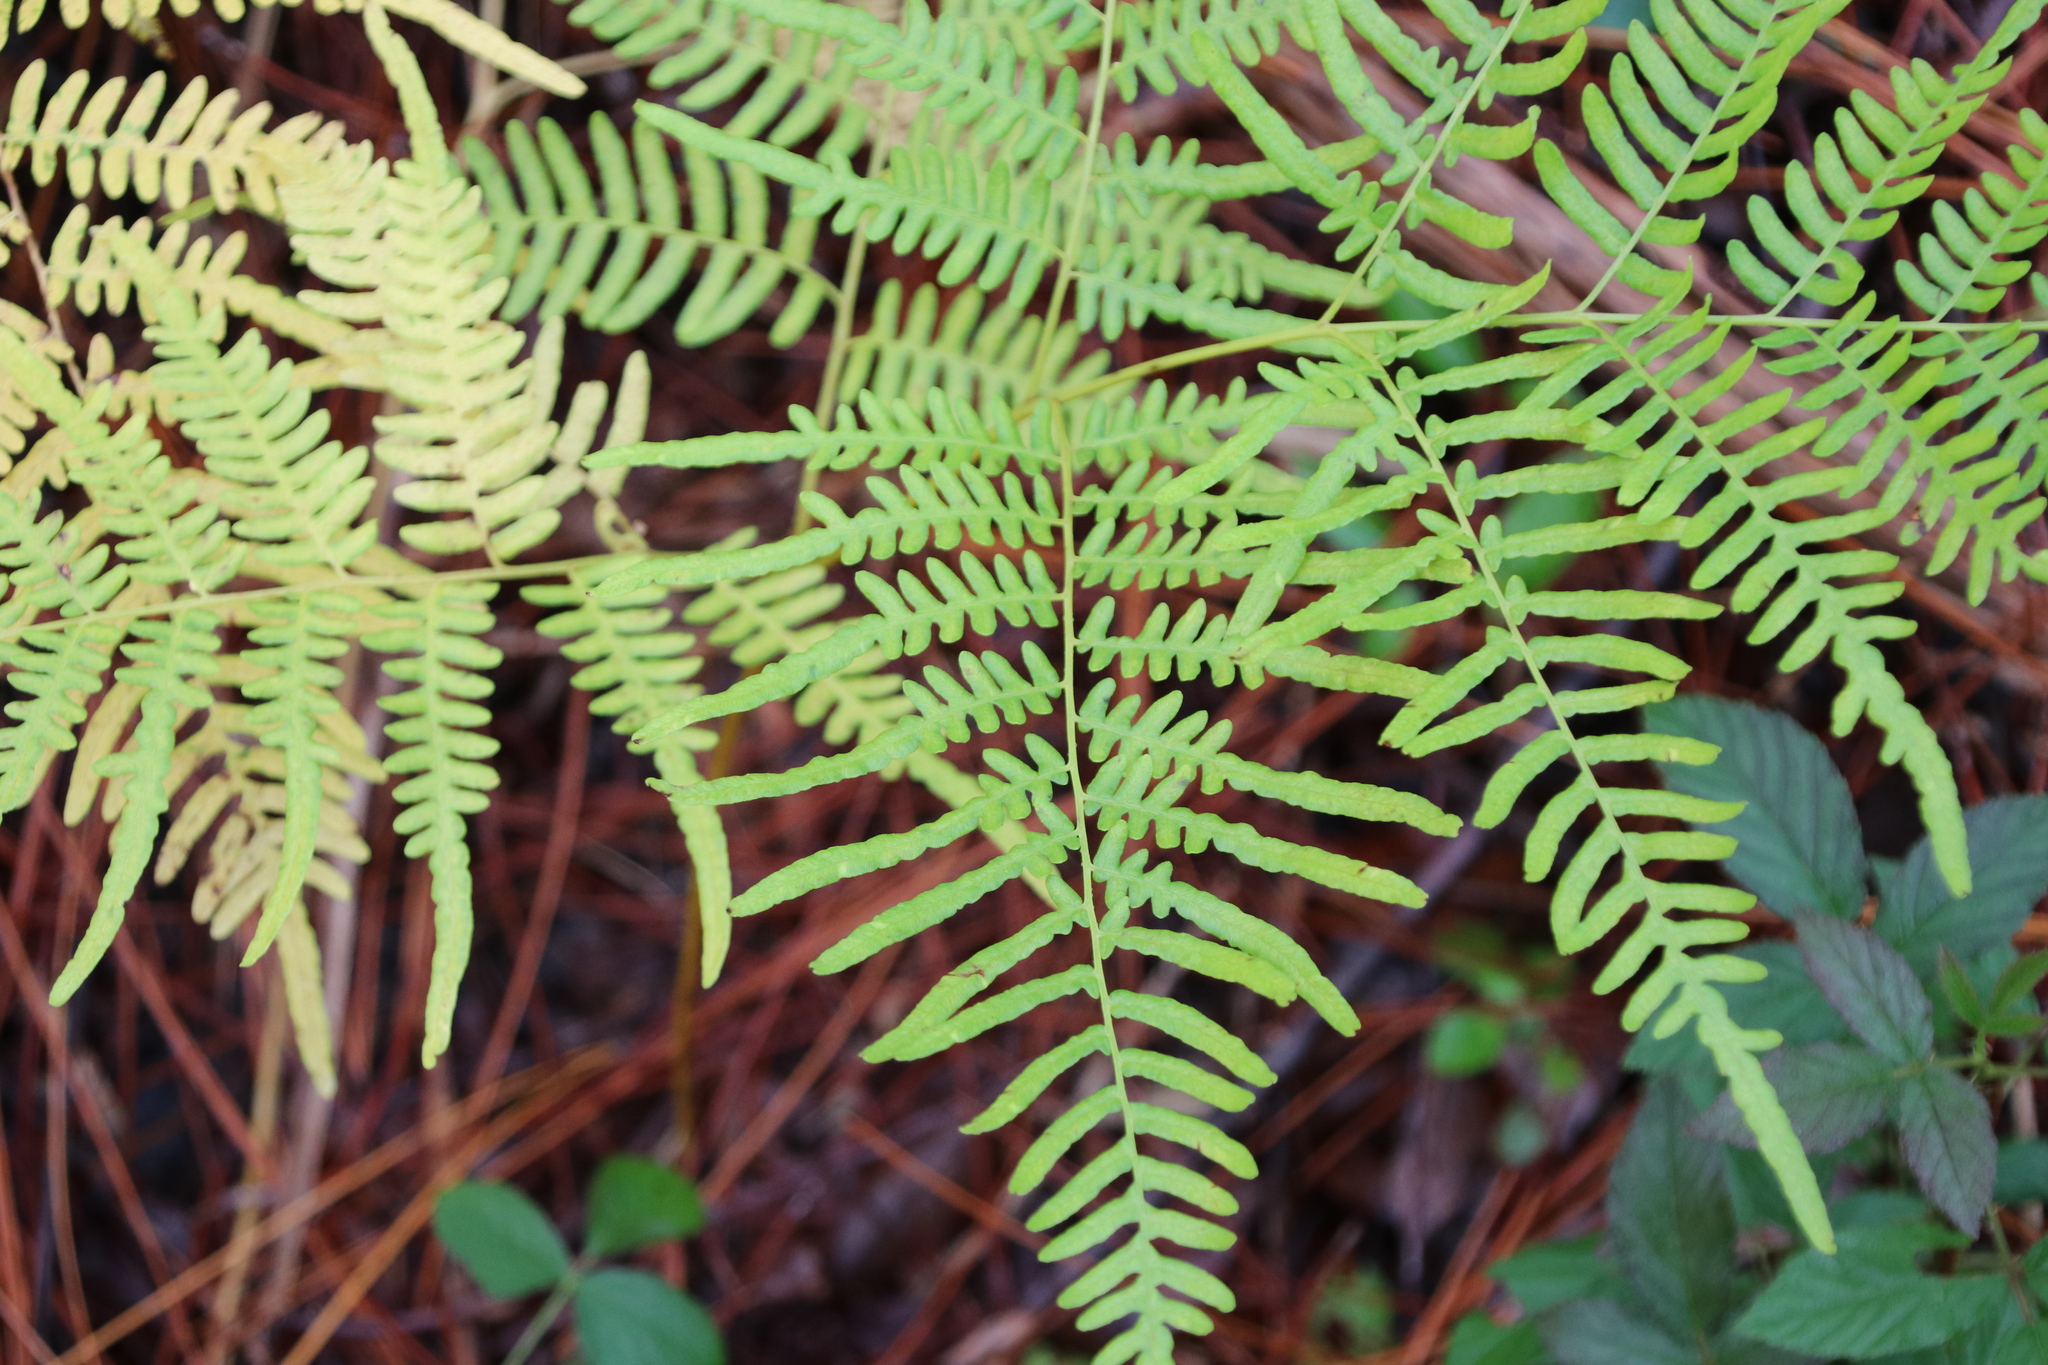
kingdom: Plantae
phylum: Tracheophyta
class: Polypodiopsida
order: Polypodiales
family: Dennstaedtiaceae
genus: Pteridium
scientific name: Pteridium aquilinum
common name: Bracken
